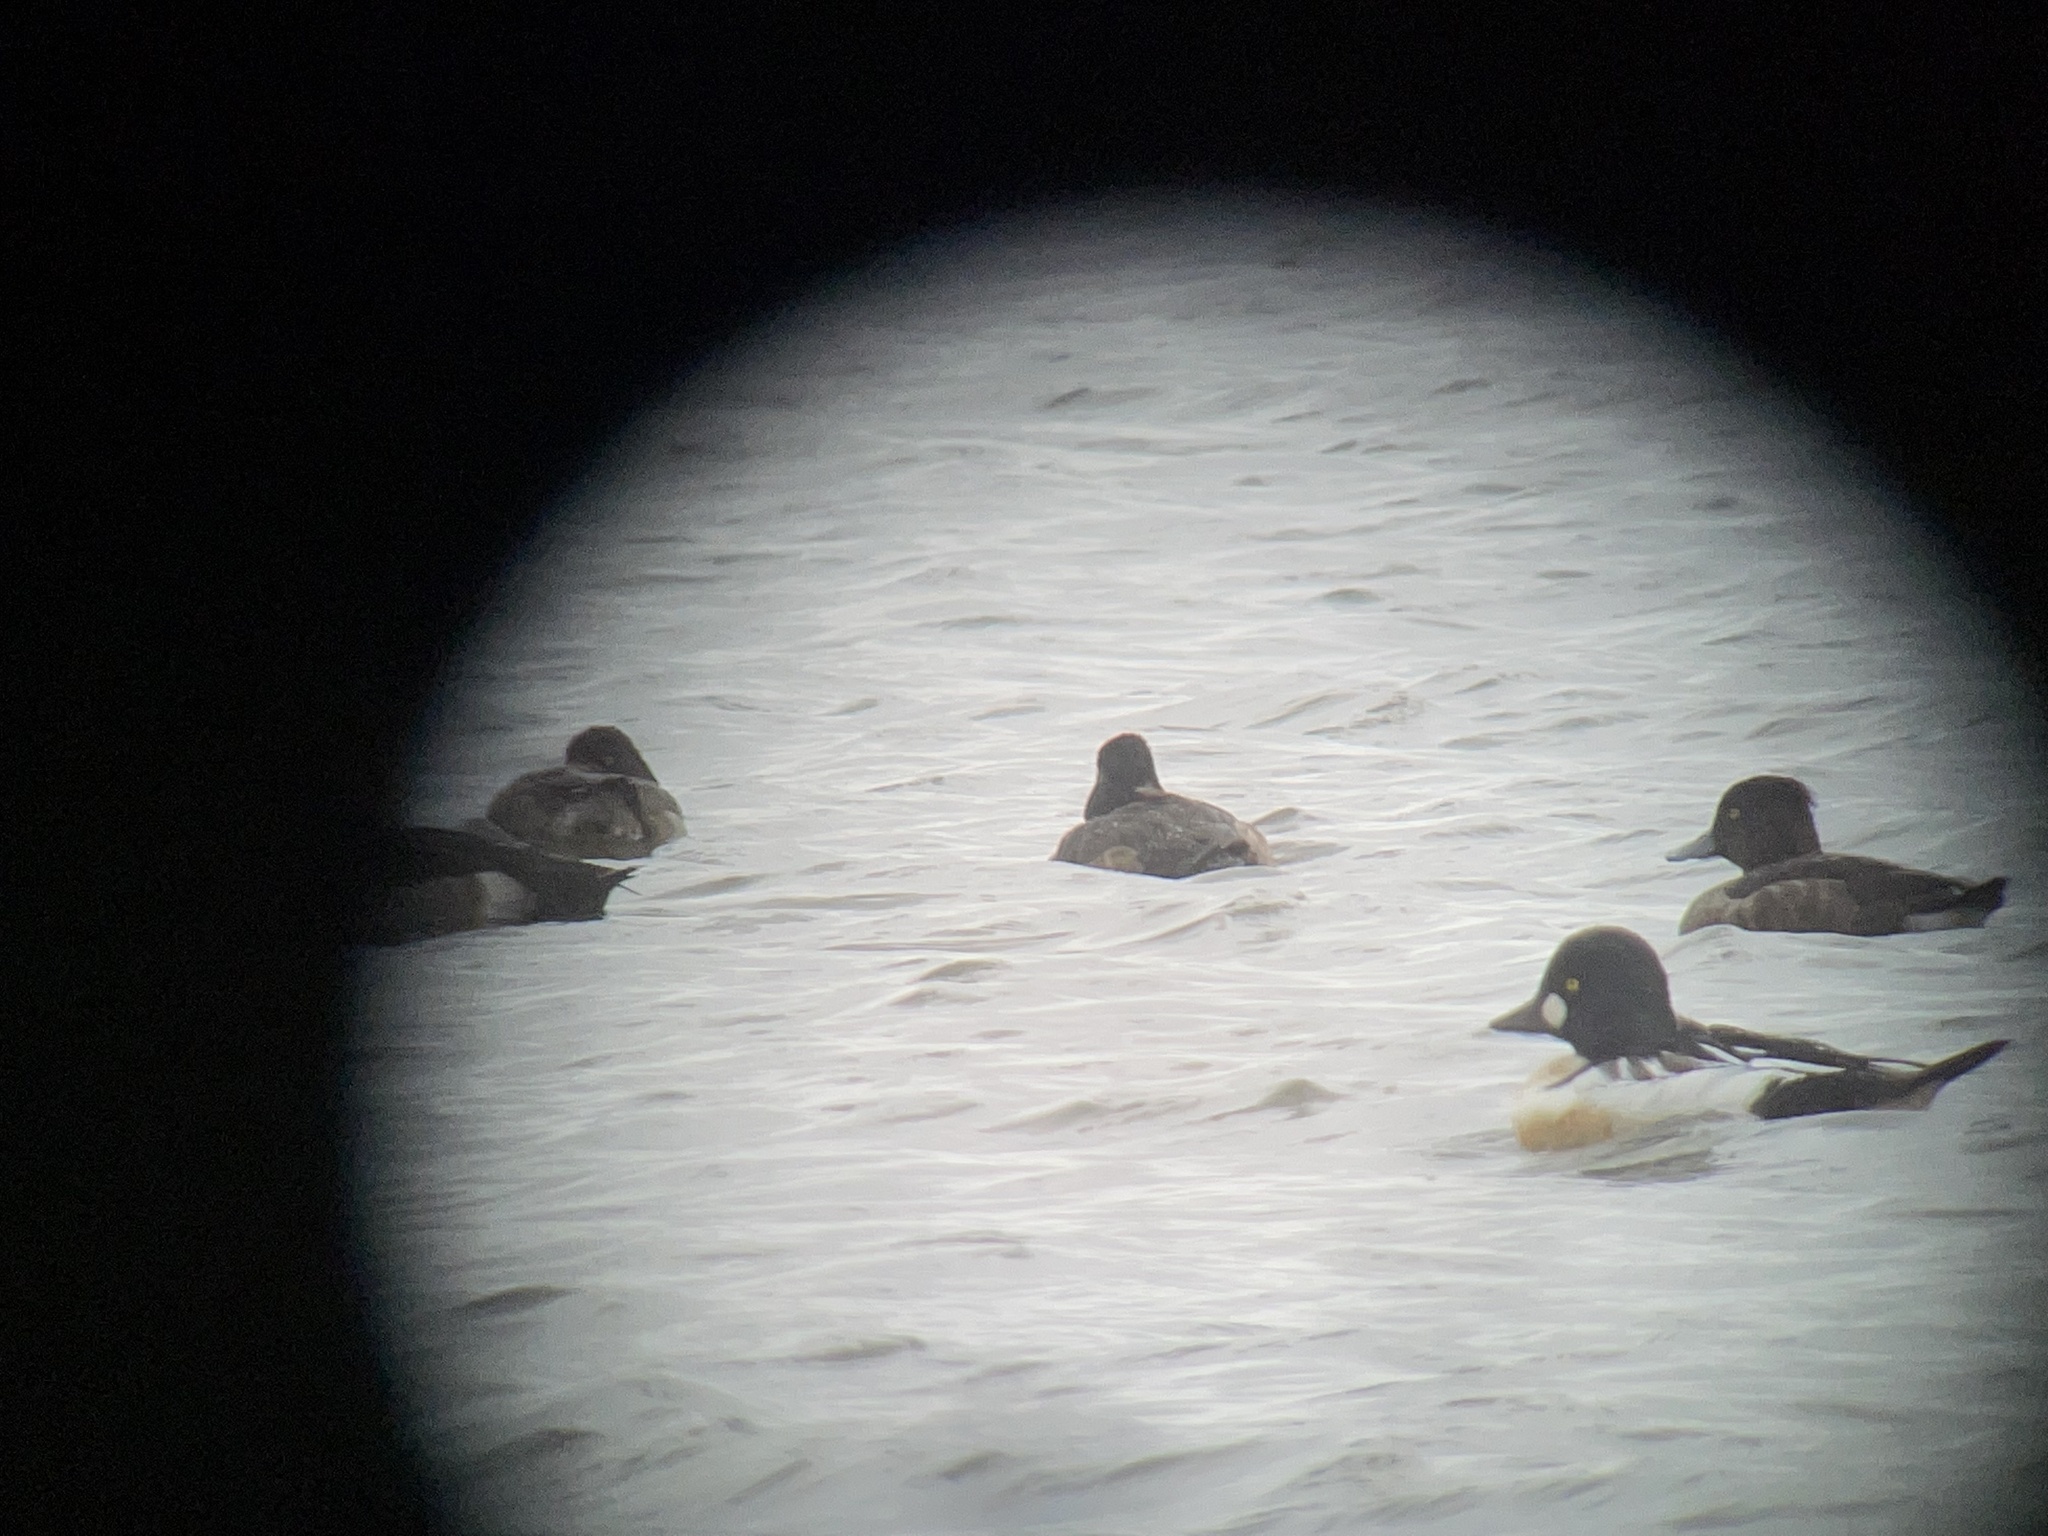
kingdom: Animalia
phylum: Chordata
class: Aves
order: Anseriformes
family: Anatidae
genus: Bucephala
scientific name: Bucephala clangula
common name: Common goldeneye
